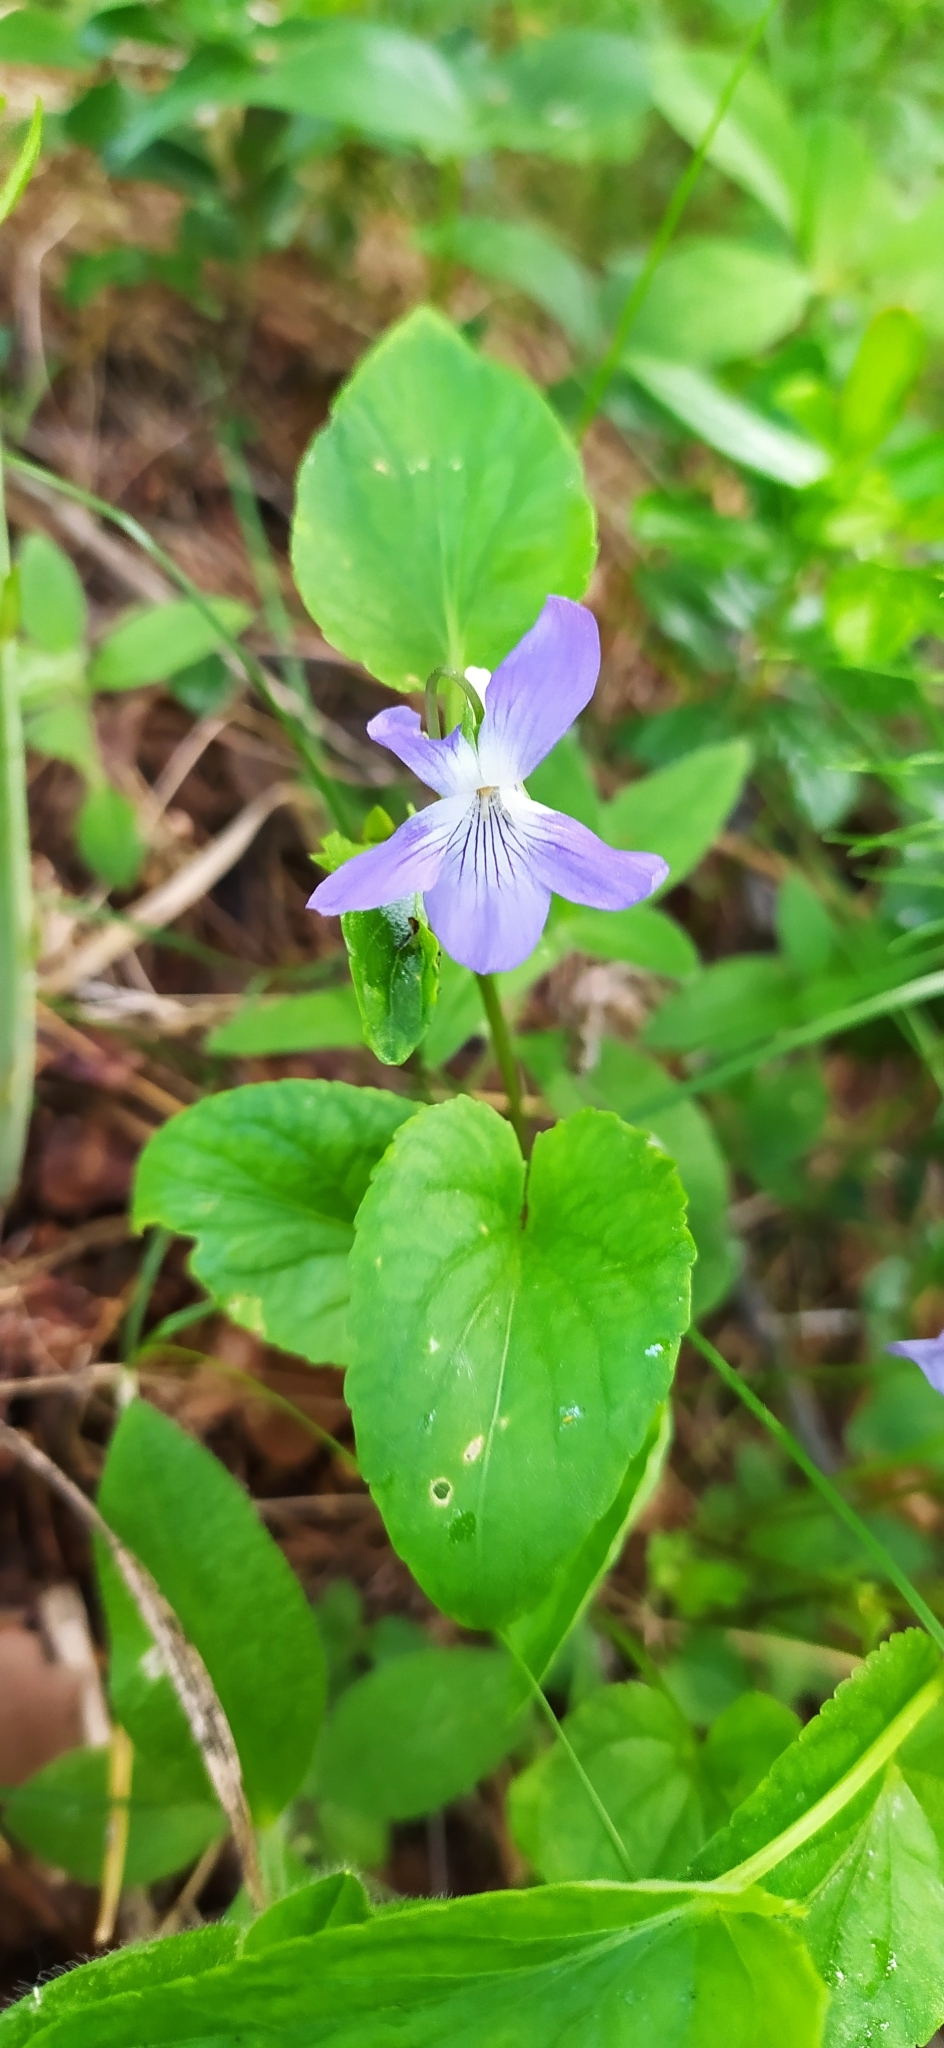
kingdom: Plantae
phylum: Tracheophyta
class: Magnoliopsida
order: Malpighiales
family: Violaceae
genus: Viola
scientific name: Viola
